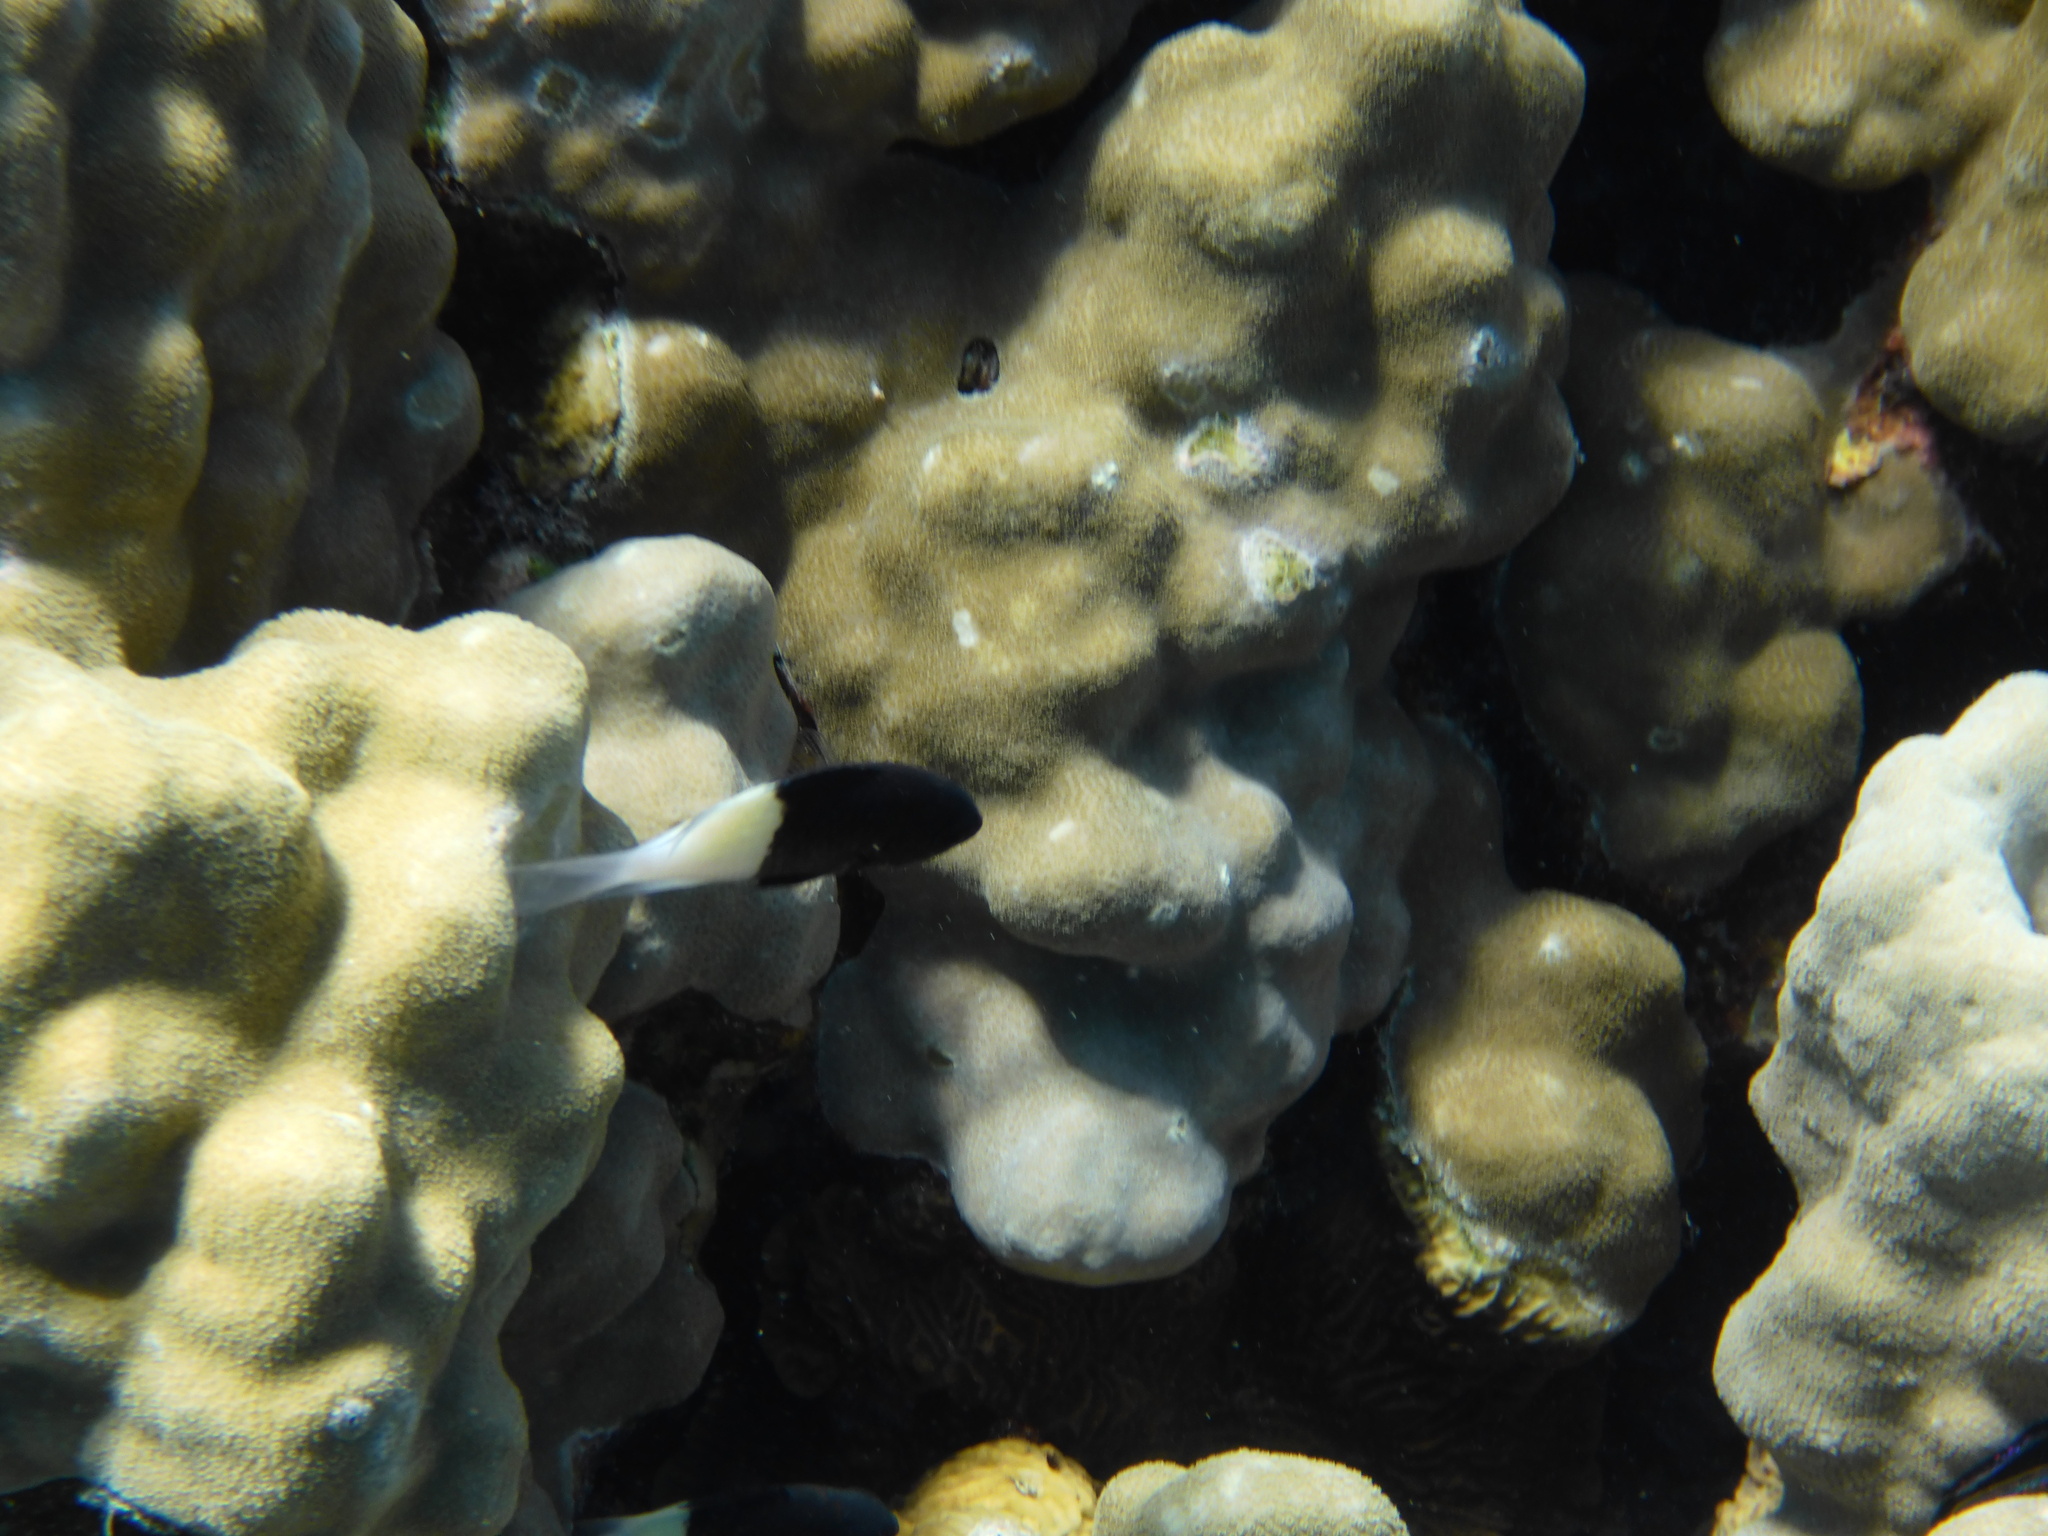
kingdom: Animalia
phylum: Chordata
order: Perciformes
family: Pomacentridae
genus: Chromis
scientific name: Chromis dimidiata
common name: Half-and-half chromis
